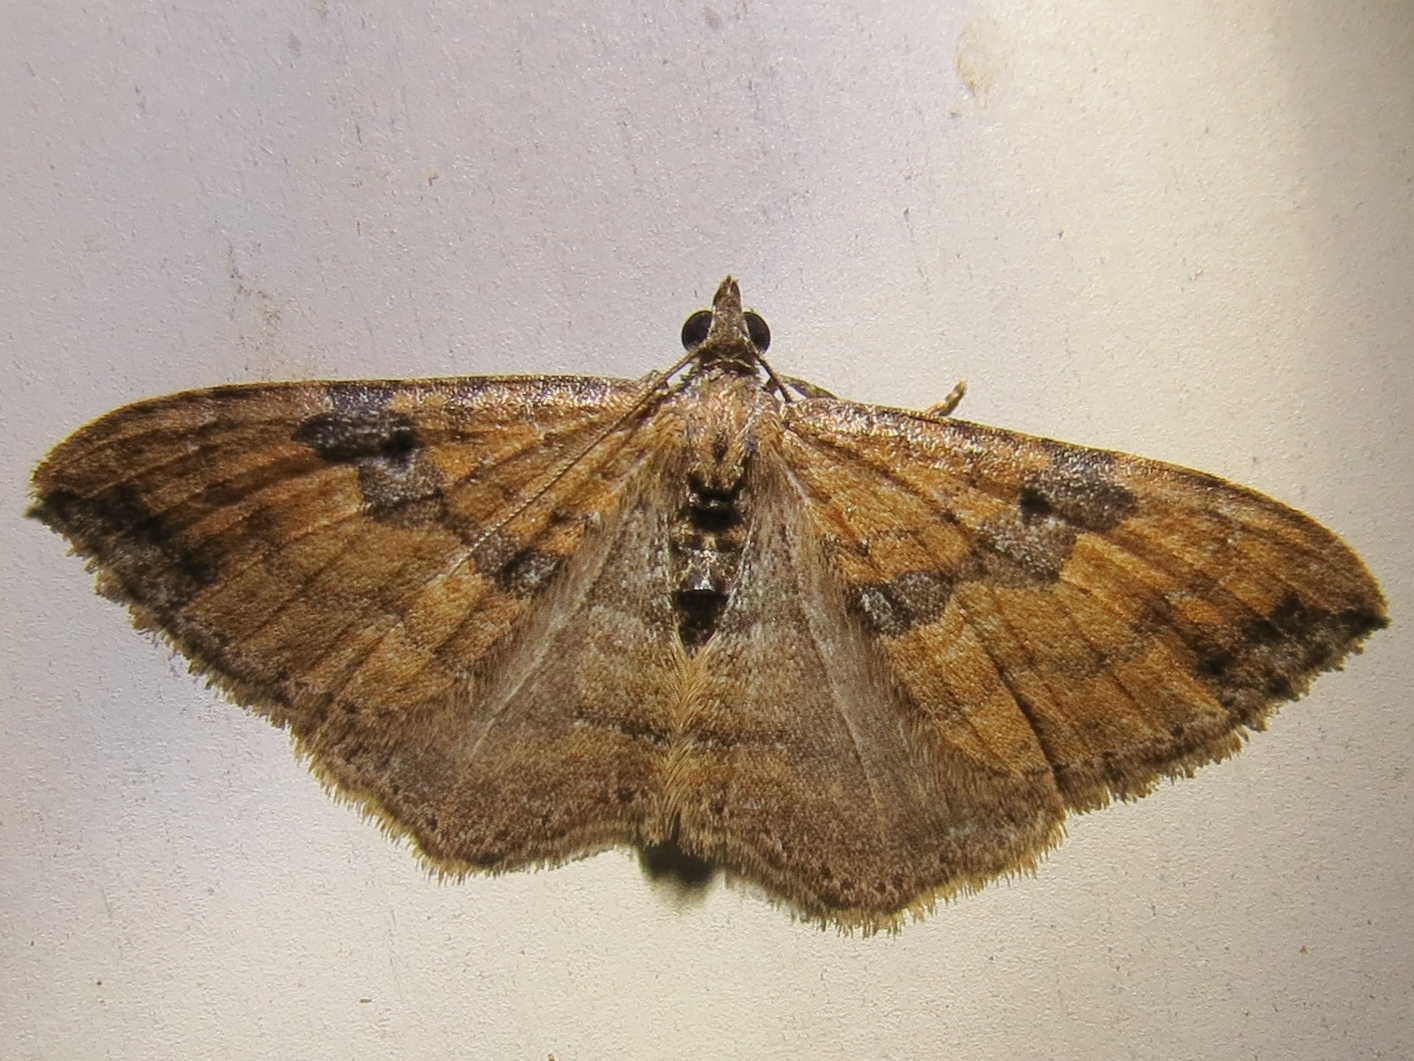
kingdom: Animalia
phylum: Arthropoda
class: Insecta
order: Lepidoptera
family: Geometridae
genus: Orthonama
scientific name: Orthonama obstipata
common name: The gem
